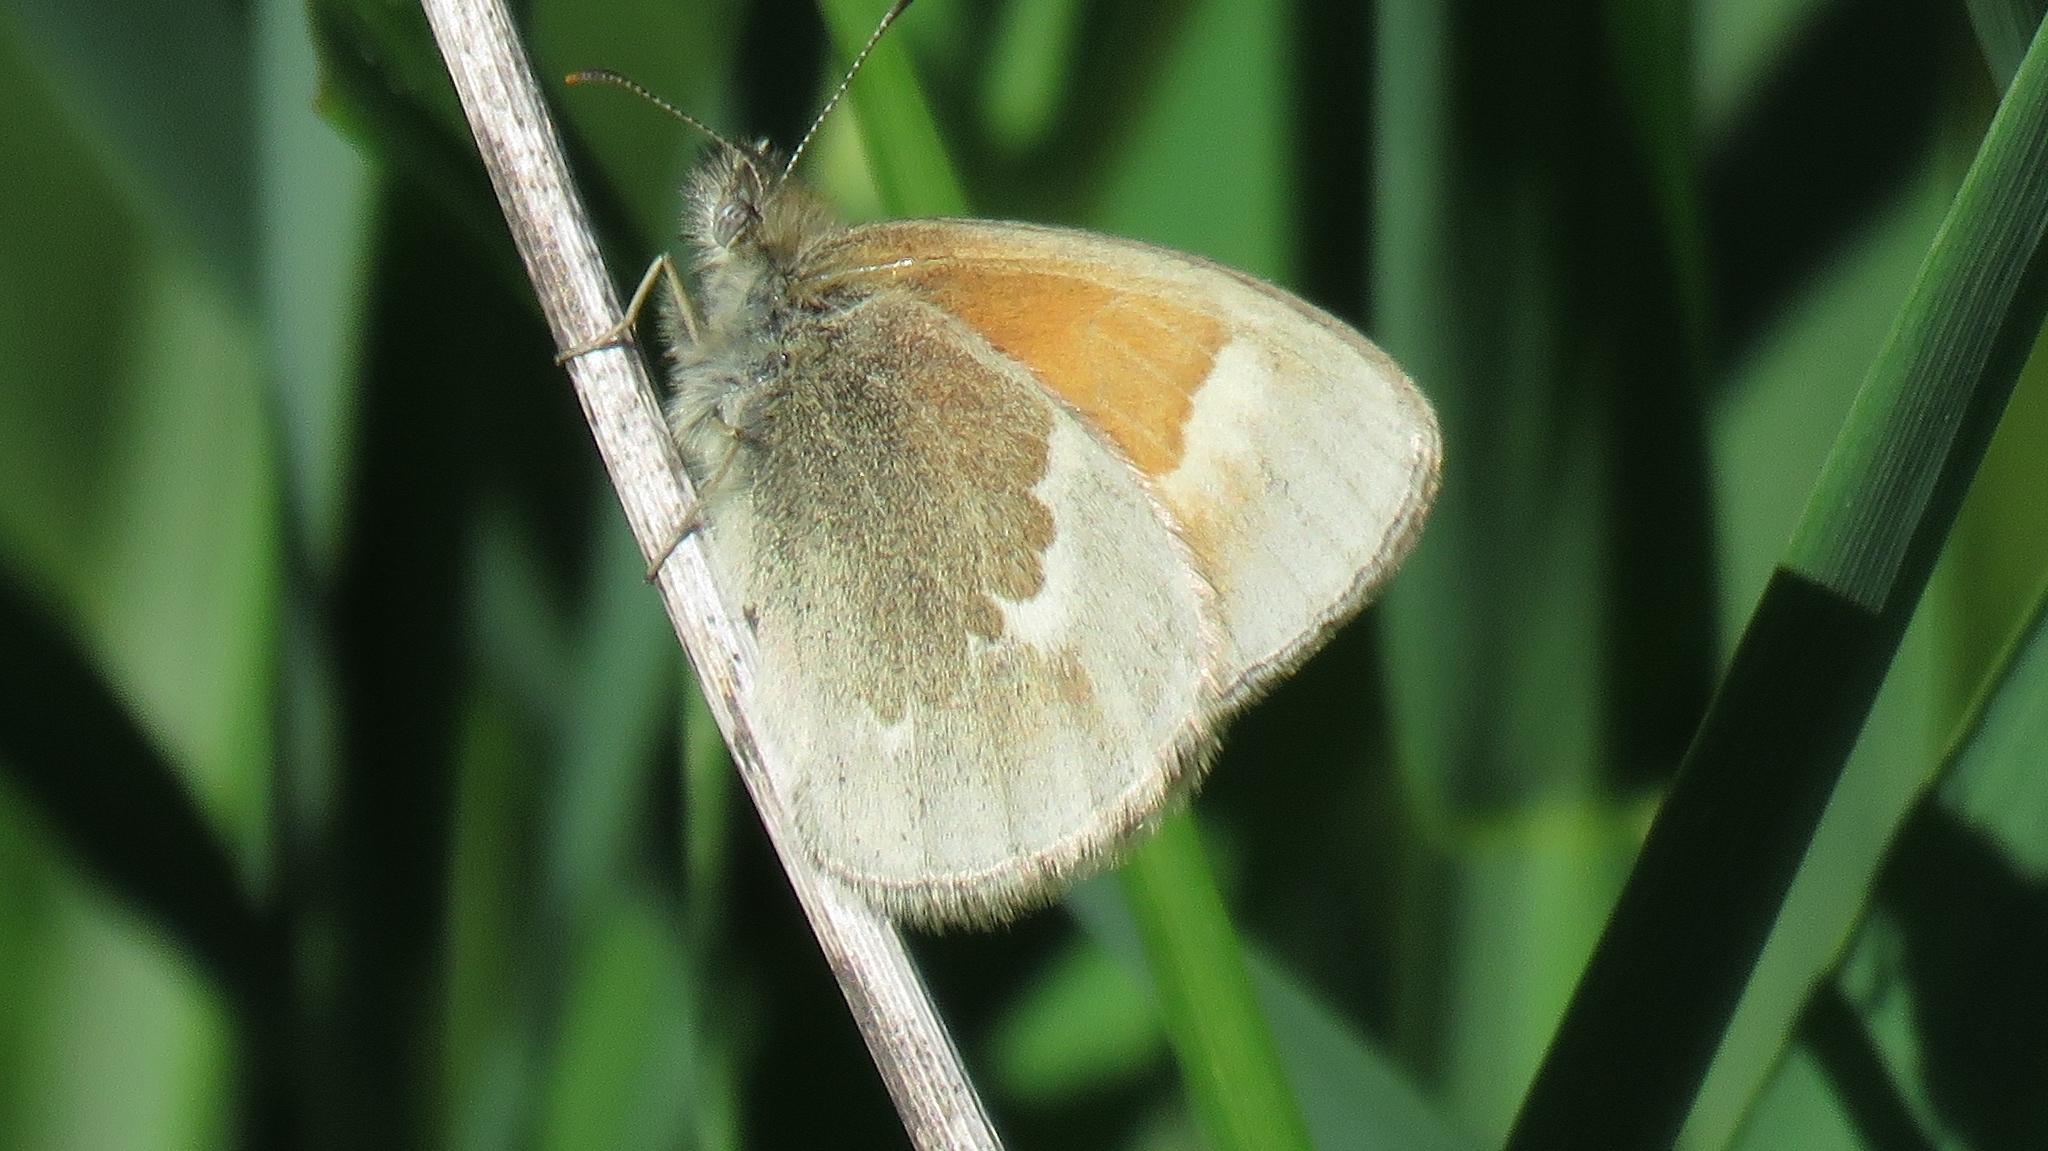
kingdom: Animalia
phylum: Arthropoda
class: Insecta
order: Lepidoptera
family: Nymphalidae
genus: Coenonympha
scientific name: Coenonympha california
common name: Common ringlet
